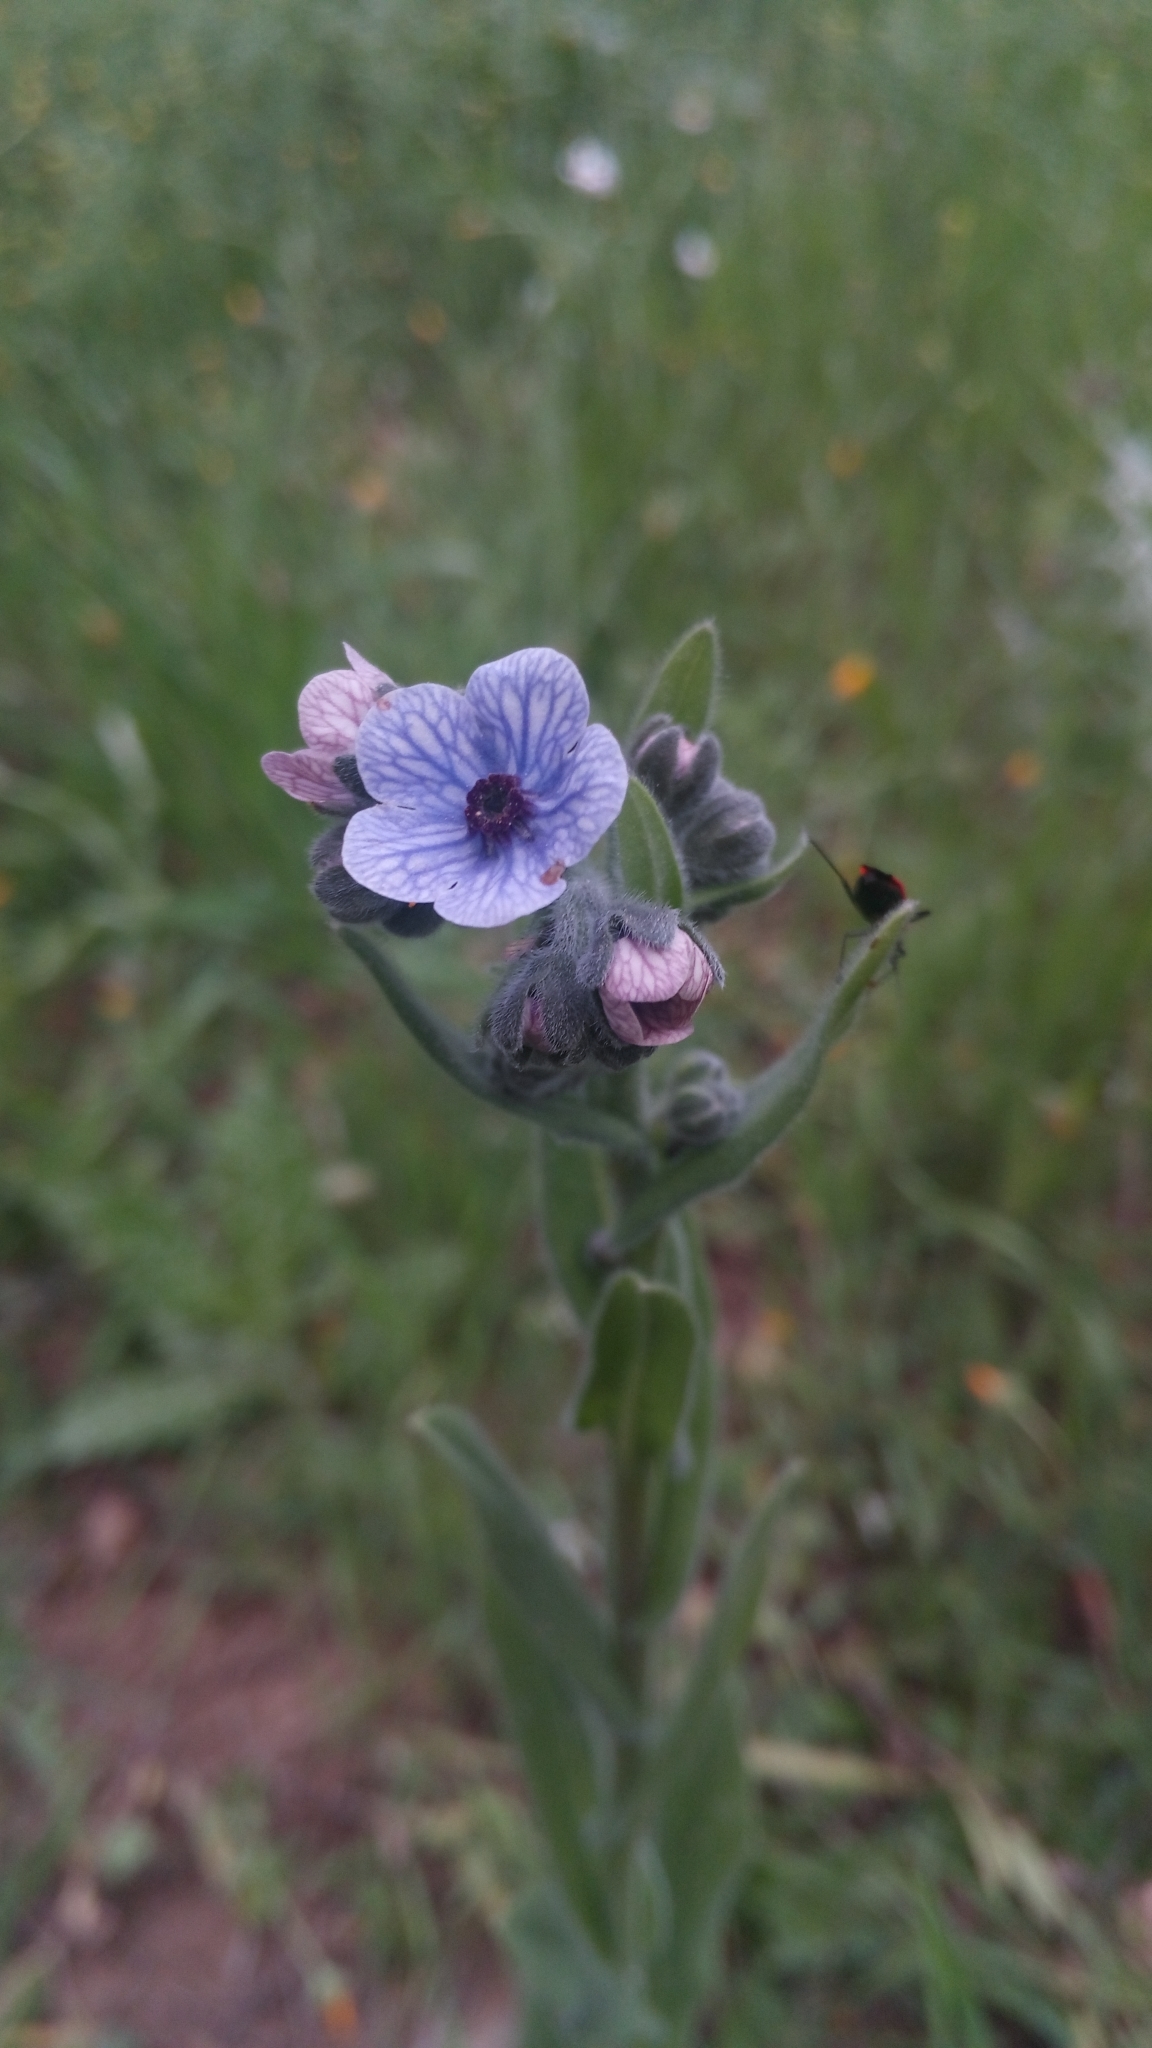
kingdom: Plantae
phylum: Tracheophyta
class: Magnoliopsida
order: Boraginales
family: Boraginaceae
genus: Cynoglossum
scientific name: Cynoglossum creticum
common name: Blue hound's tongue
